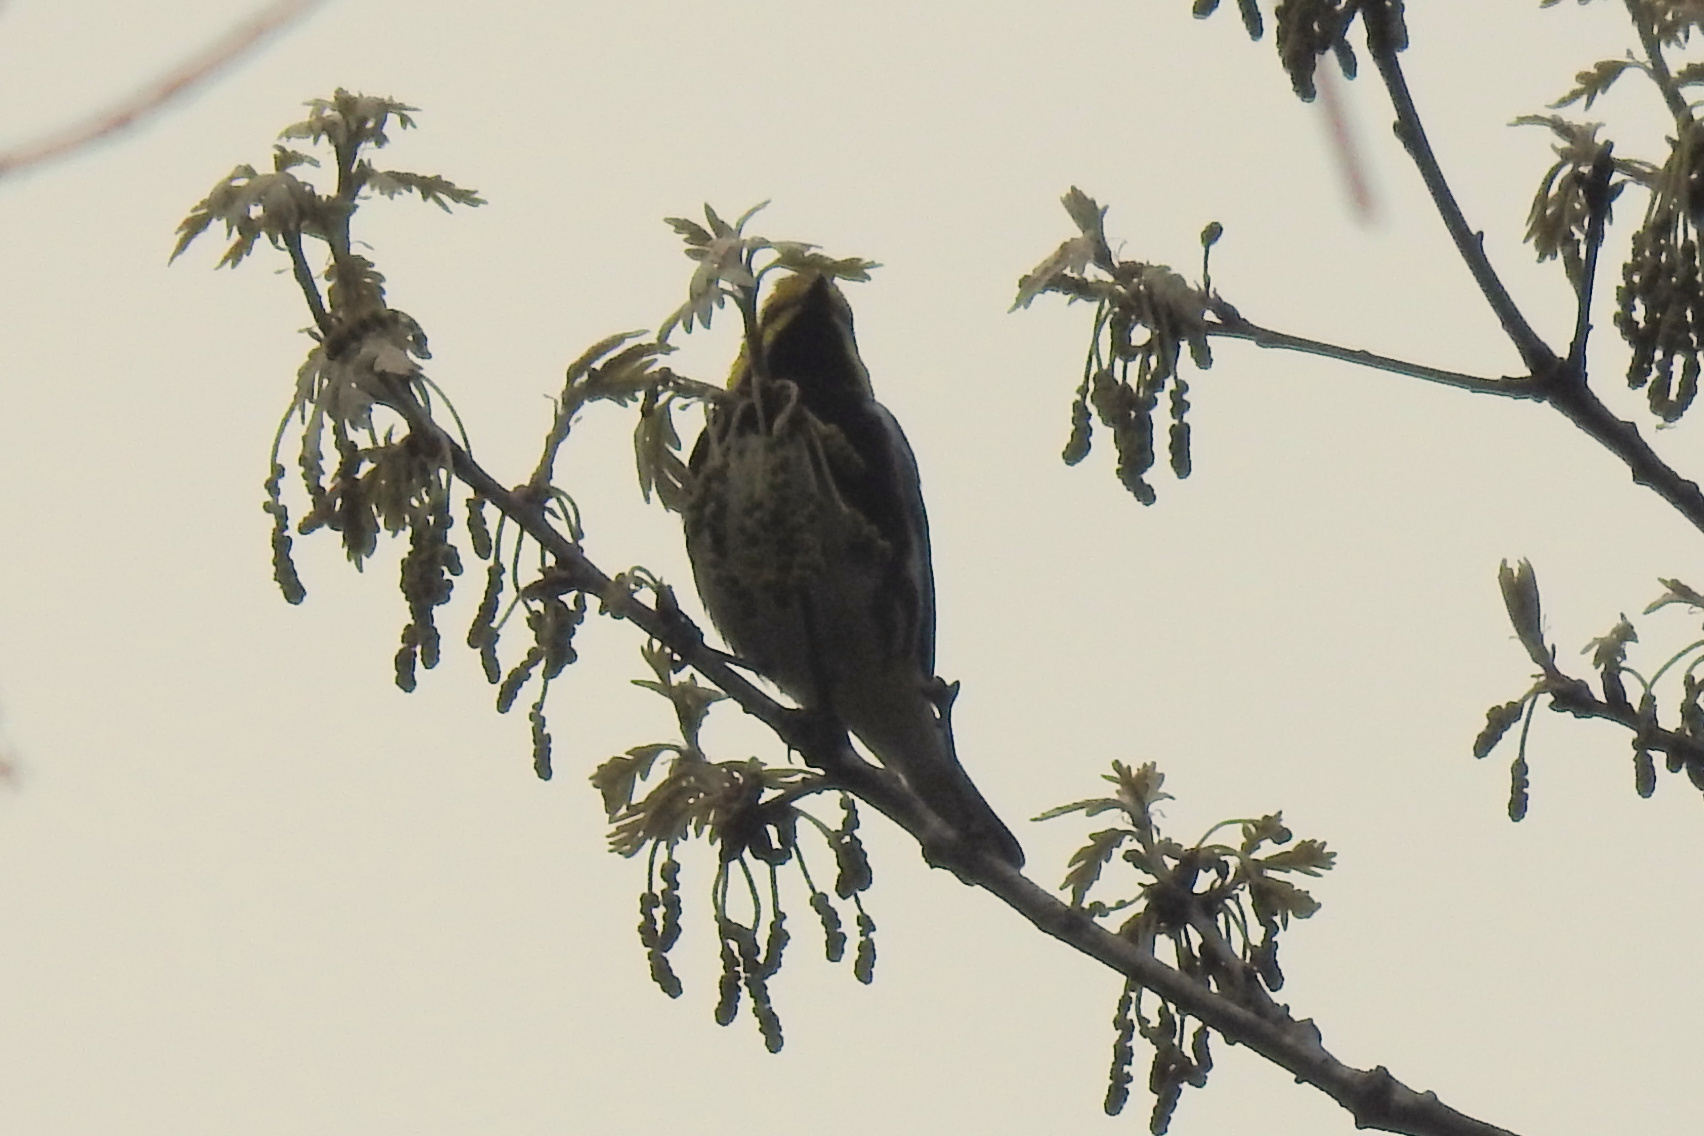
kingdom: Animalia
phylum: Chordata
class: Aves
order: Passeriformes
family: Parulidae
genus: Setophaga
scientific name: Setophaga virens
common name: Black-throated green warbler
